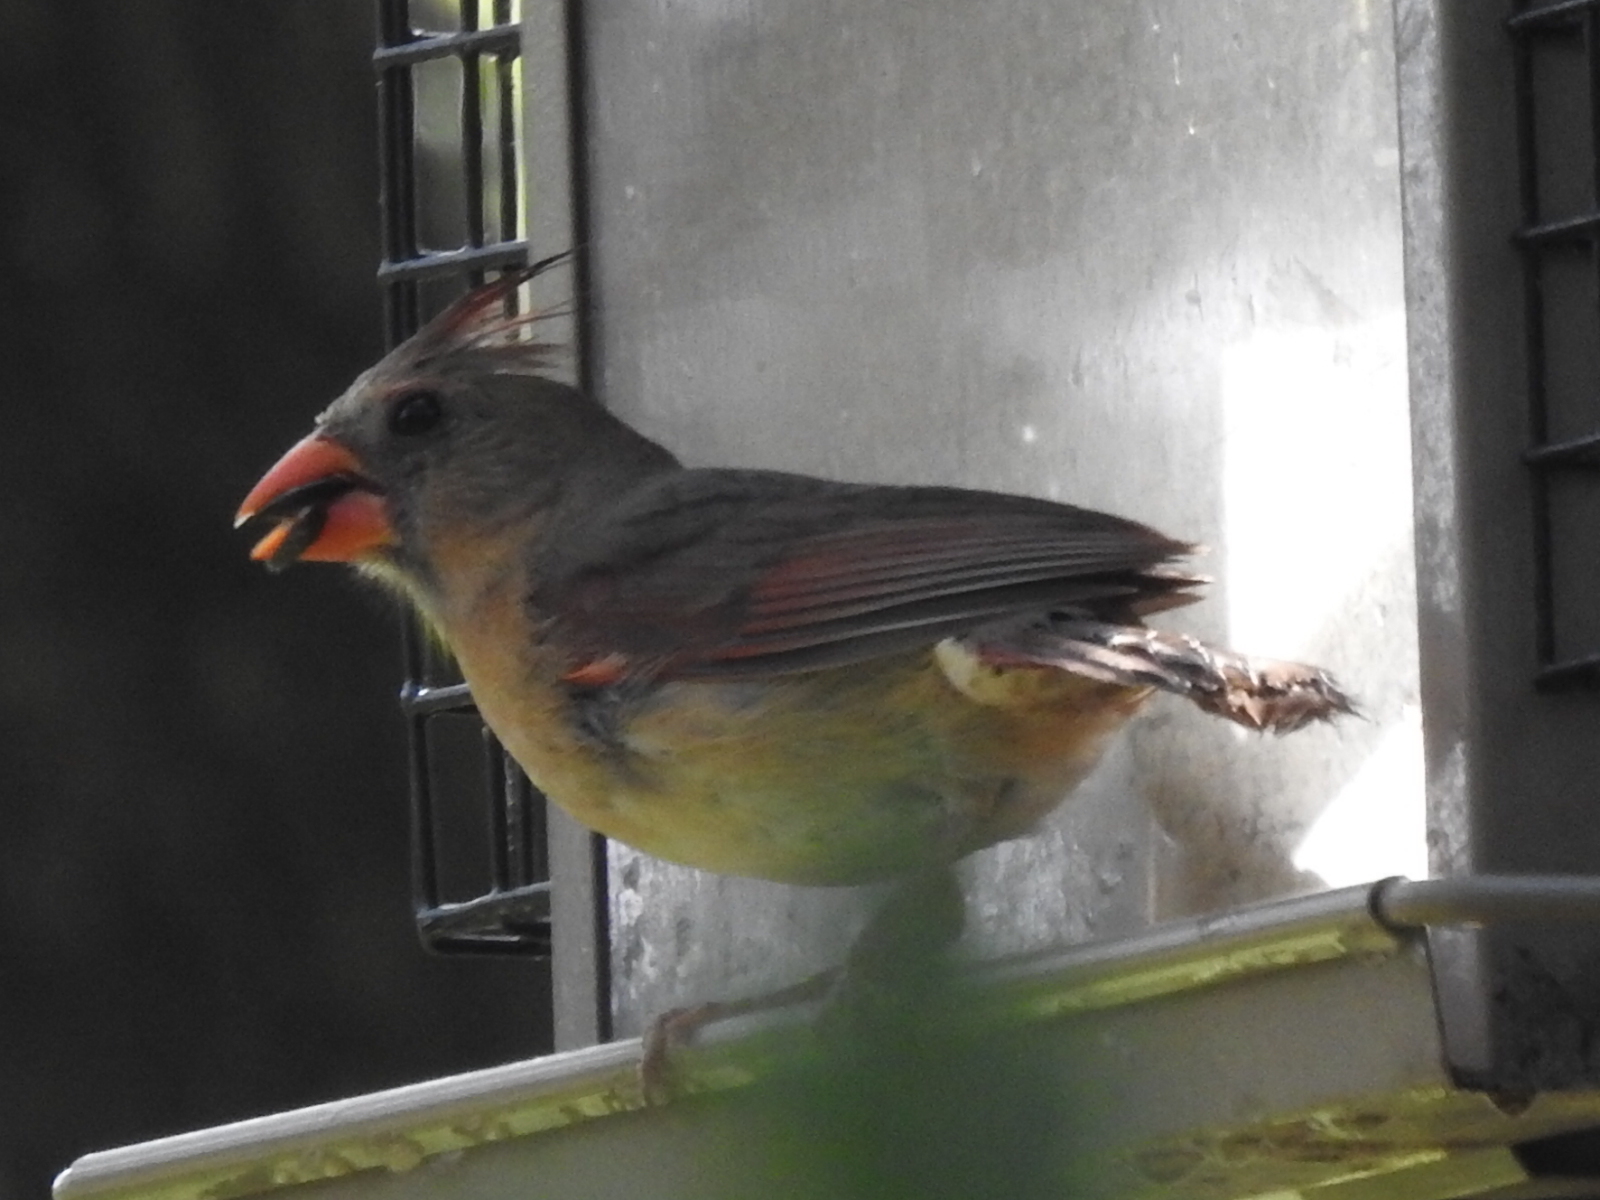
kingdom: Animalia
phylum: Chordata
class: Aves
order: Passeriformes
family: Cardinalidae
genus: Cardinalis
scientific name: Cardinalis cardinalis
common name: Northern cardinal
